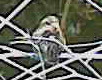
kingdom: Animalia
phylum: Chordata
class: Aves
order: Passeriformes
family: Fringillidae
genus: Haemorhous
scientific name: Haemorhous purpureus
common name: Purple finch
